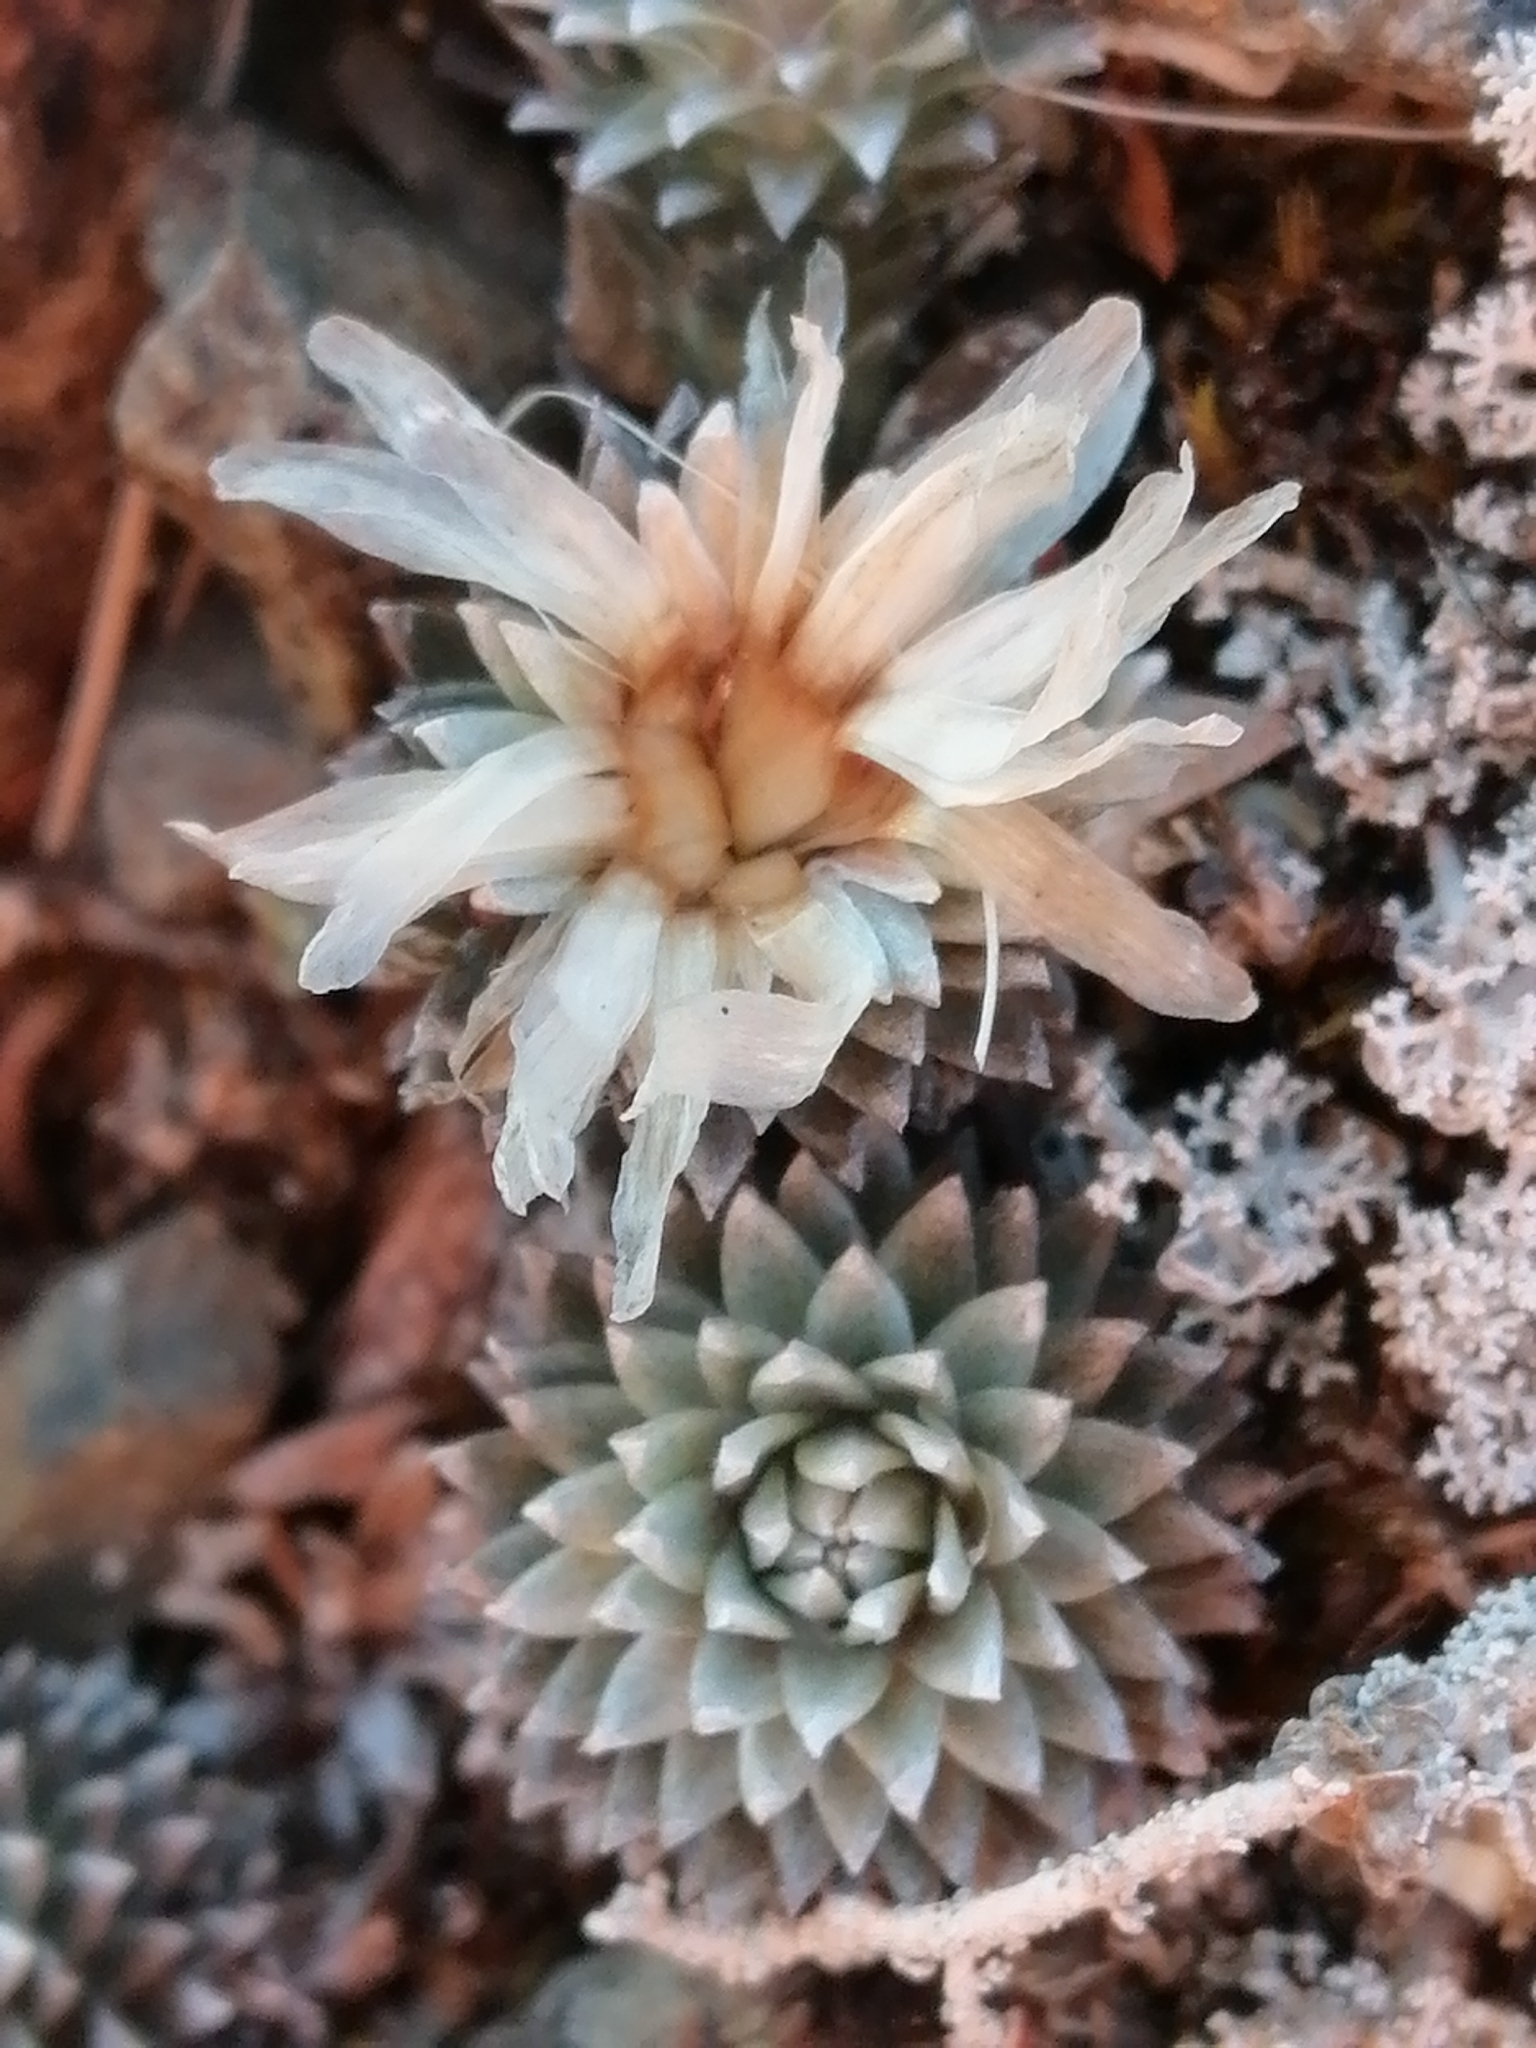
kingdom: Plantae
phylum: Tracheophyta
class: Magnoliopsida
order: Asterales
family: Asteraceae
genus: Raoulia
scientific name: Raoulia grandiflora
